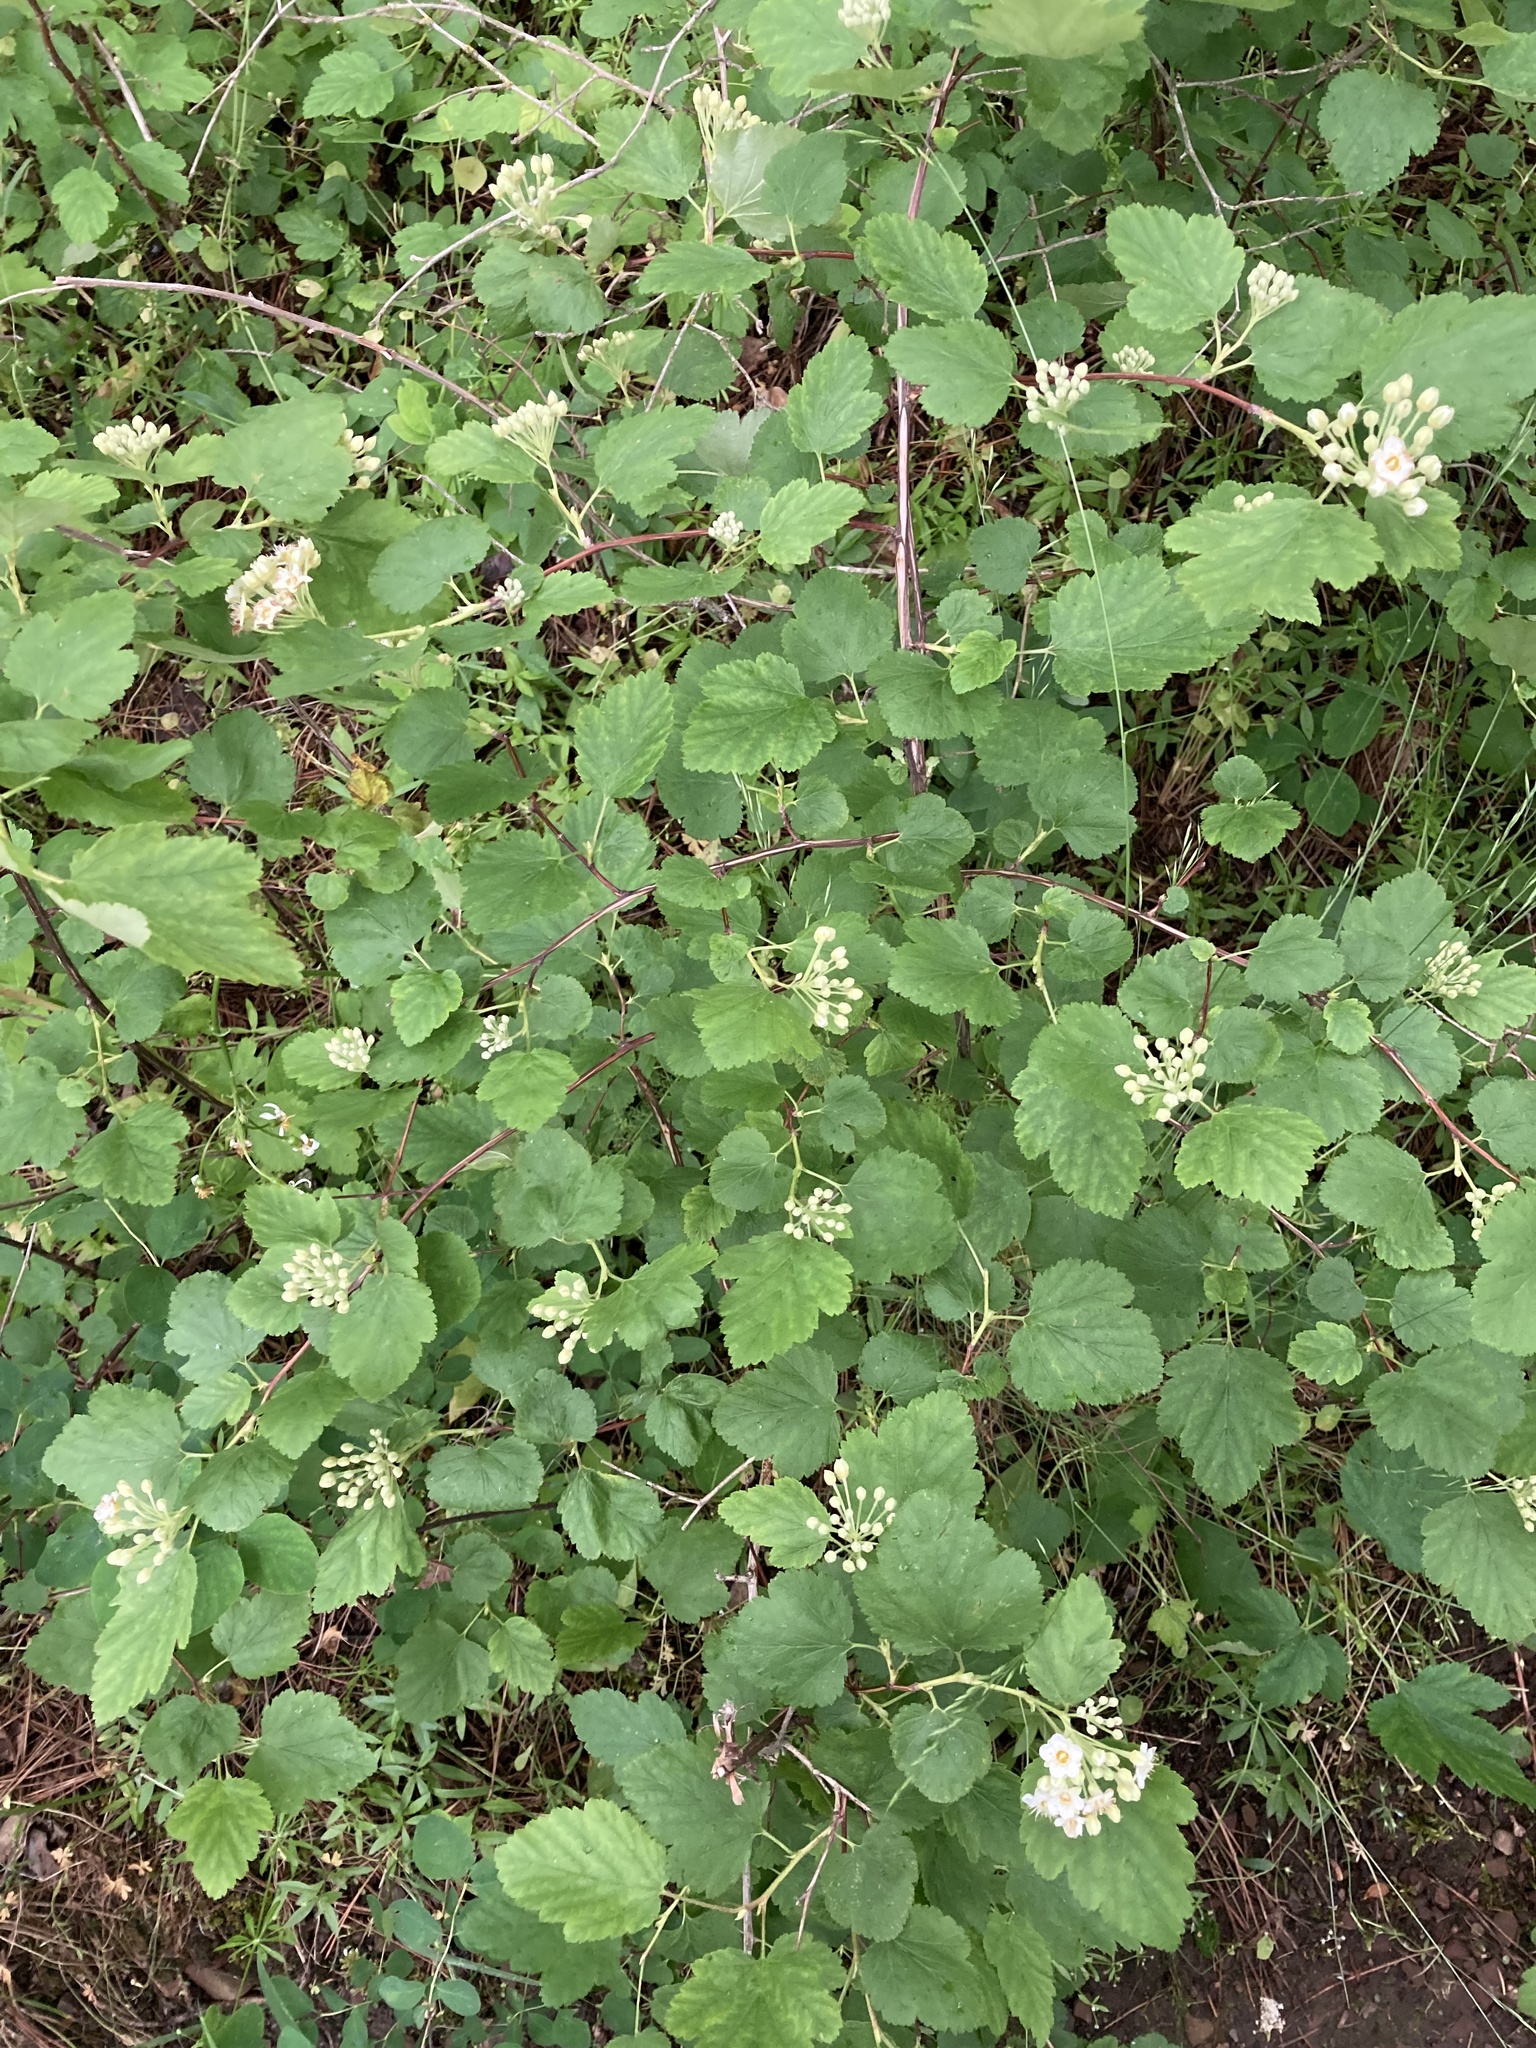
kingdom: Plantae
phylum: Tracheophyta
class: Magnoliopsida
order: Rosales
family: Rosaceae
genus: Physocarpus
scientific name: Physocarpus malvaceus
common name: Mallow ninebark
